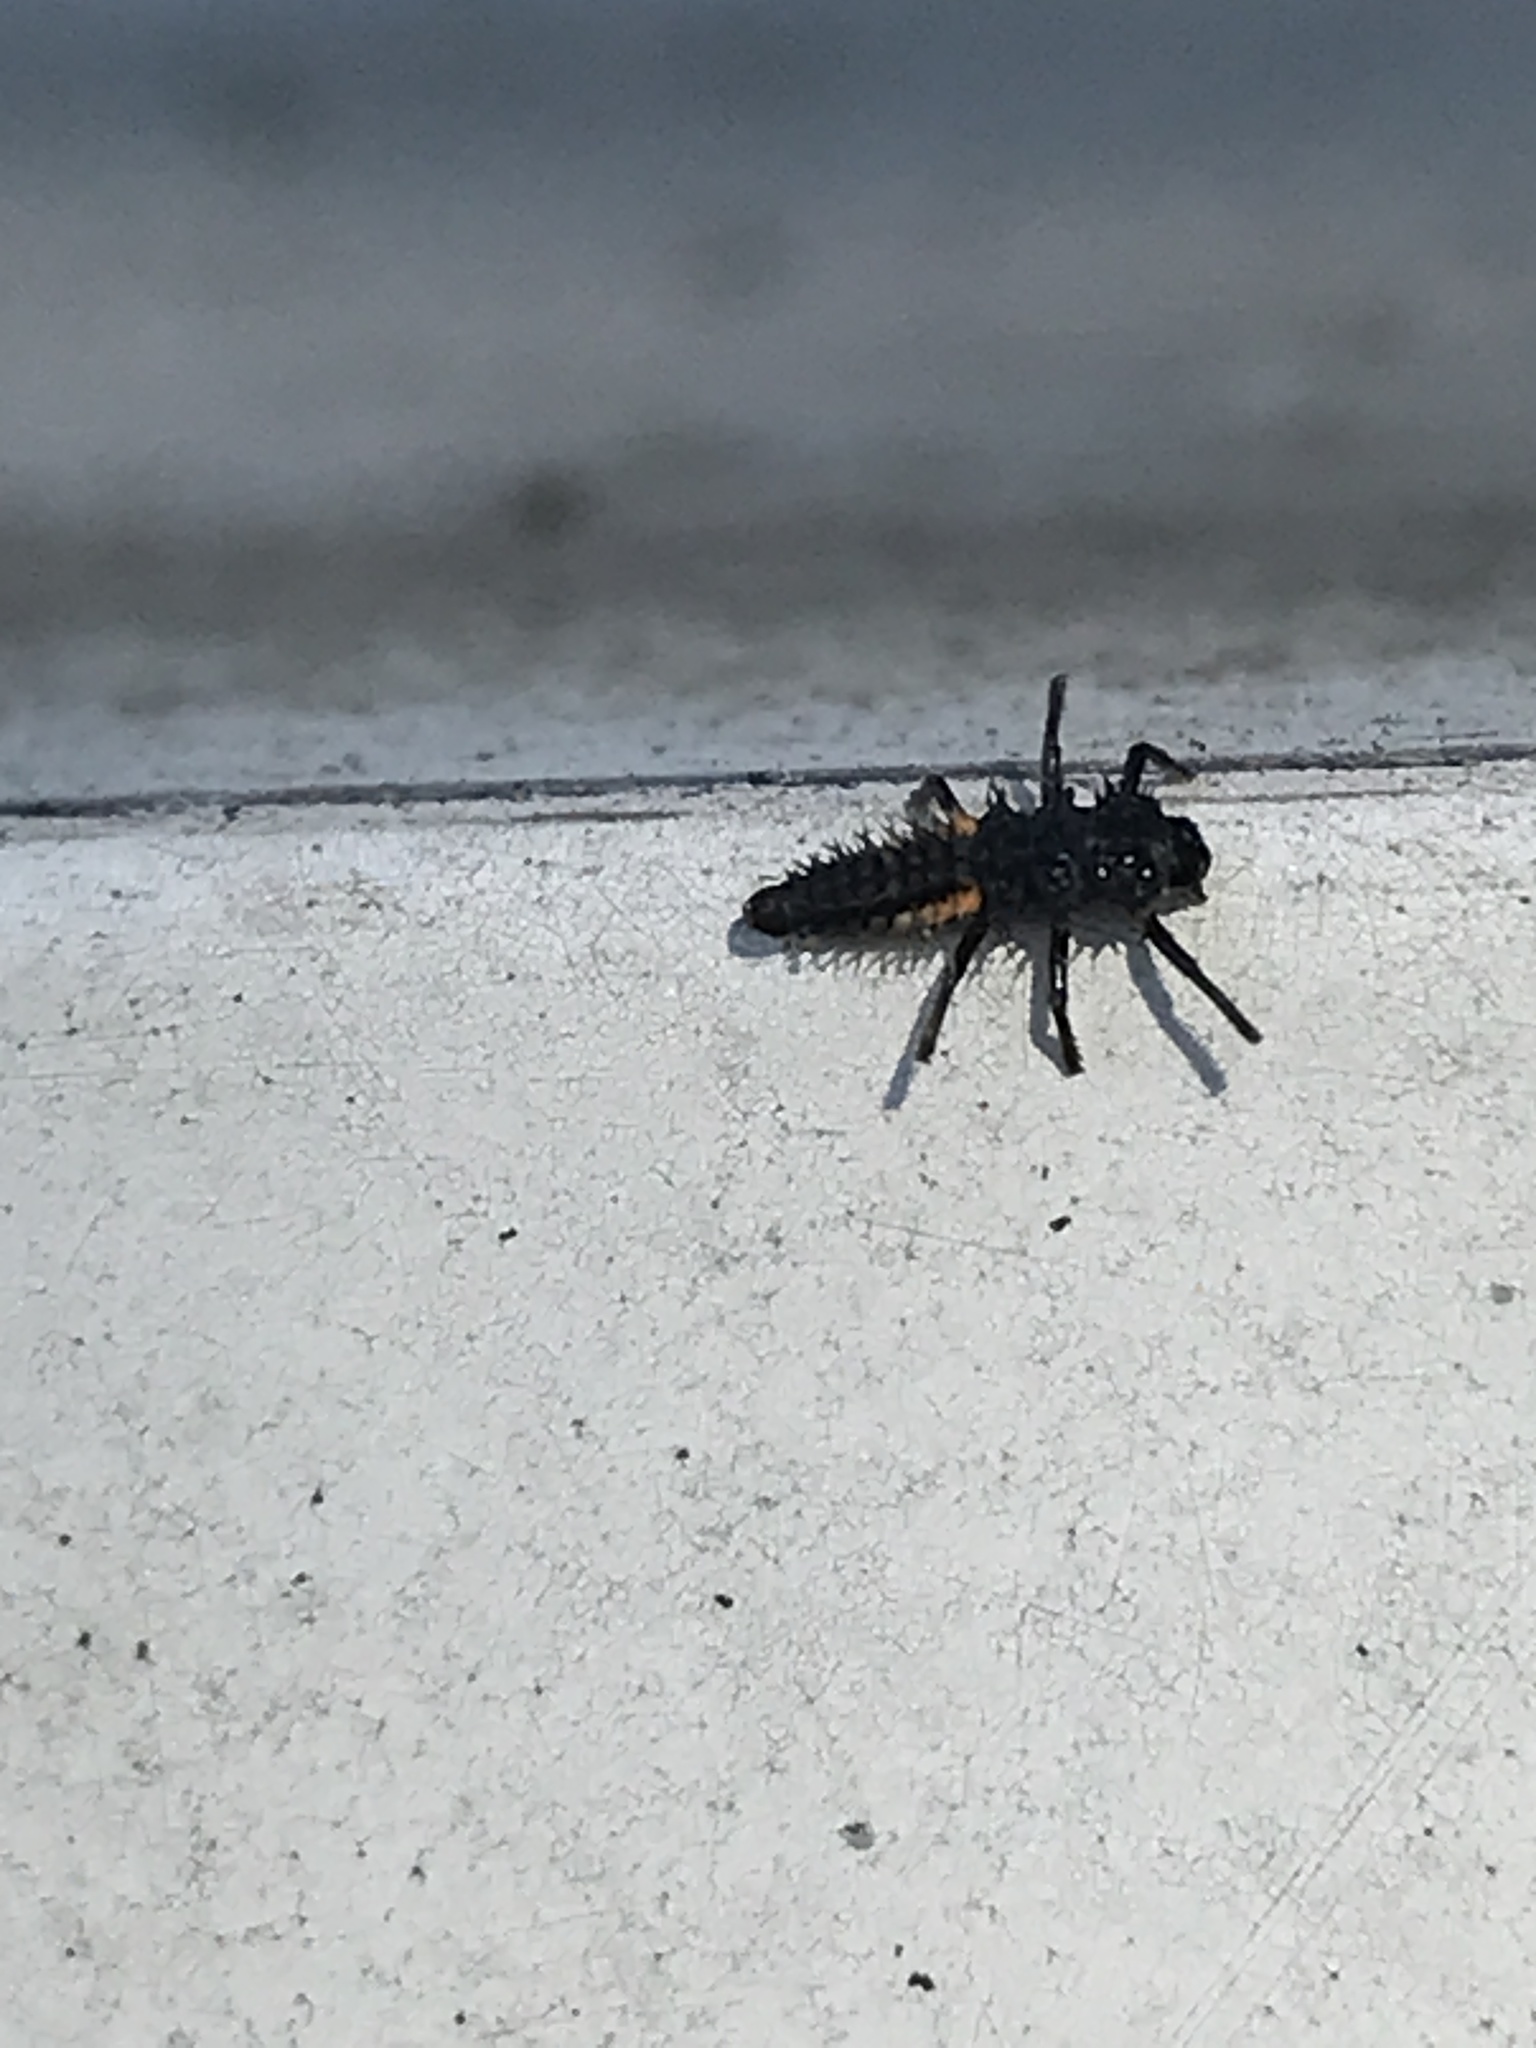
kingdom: Animalia
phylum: Arthropoda
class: Insecta
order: Coleoptera
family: Coccinellidae
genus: Harmonia
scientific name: Harmonia axyridis
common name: Harlequin ladybird
